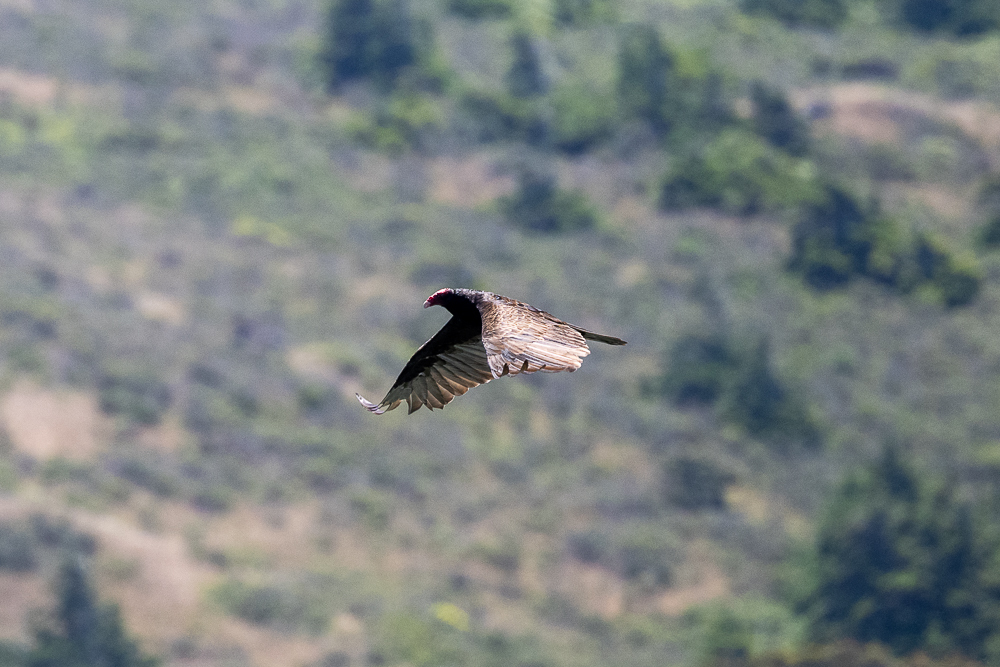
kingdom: Animalia
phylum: Chordata
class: Aves
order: Accipitriformes
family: Cathartidae
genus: Cathartes
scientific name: Cathartes aura
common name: Turkey vulture
